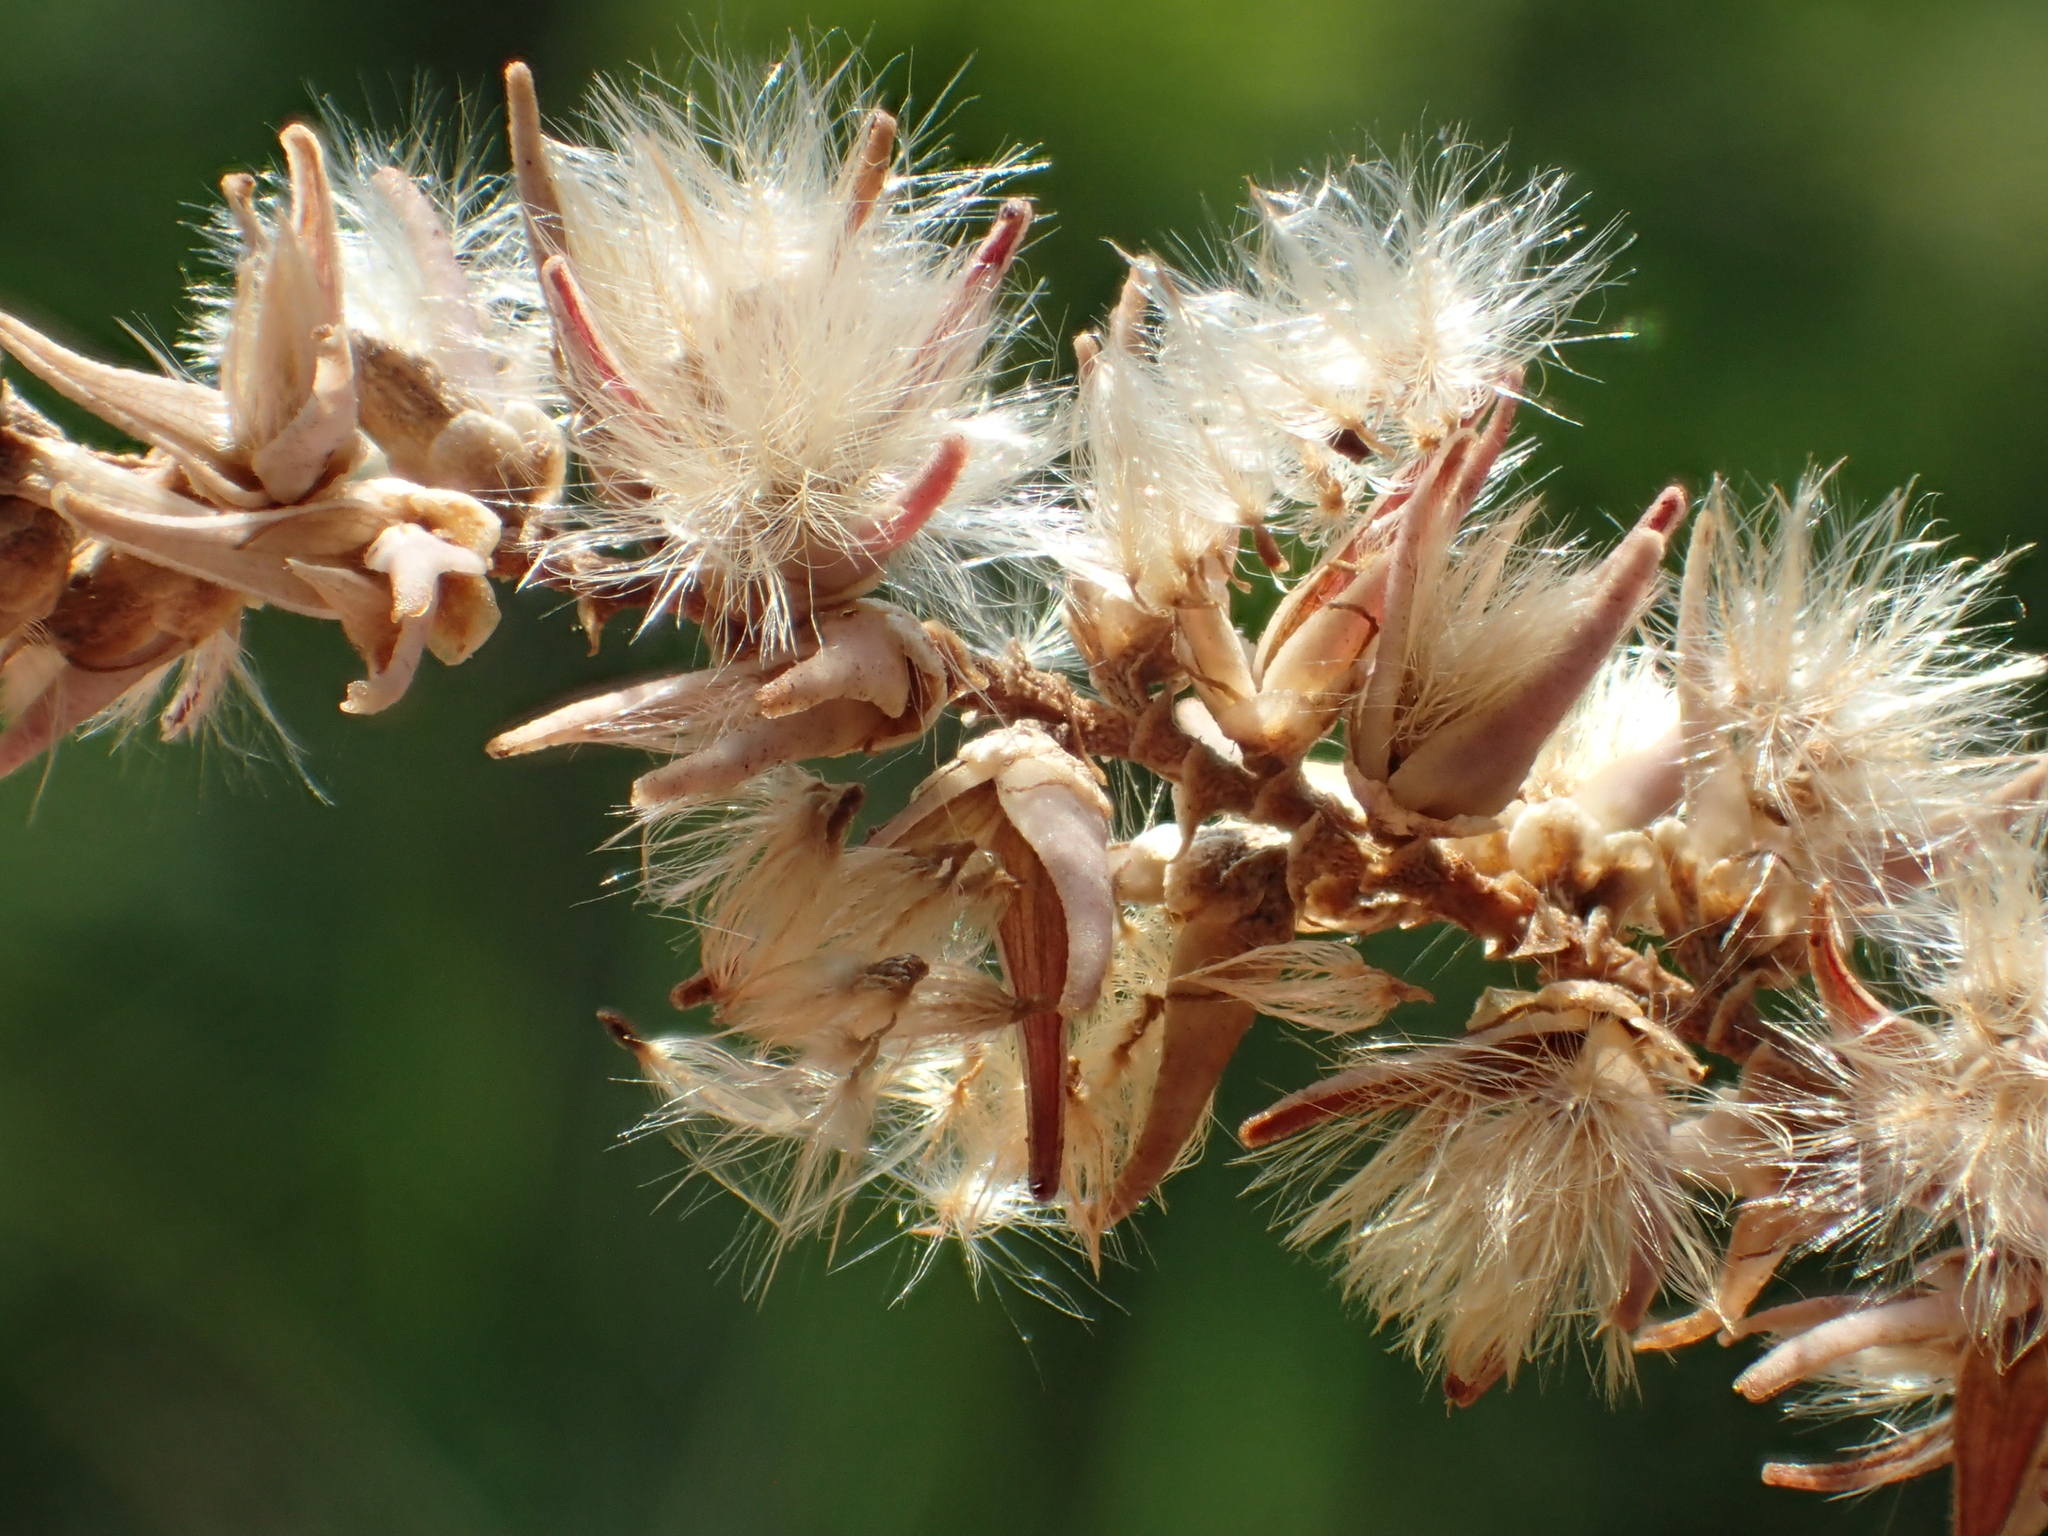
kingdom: Plantae
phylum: Tracheophyta
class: Magnoliopsida
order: Caryophyllales
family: Tamaricaceae
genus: Tamarix
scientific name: Tamarix aphylla
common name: Athel tamarisk
